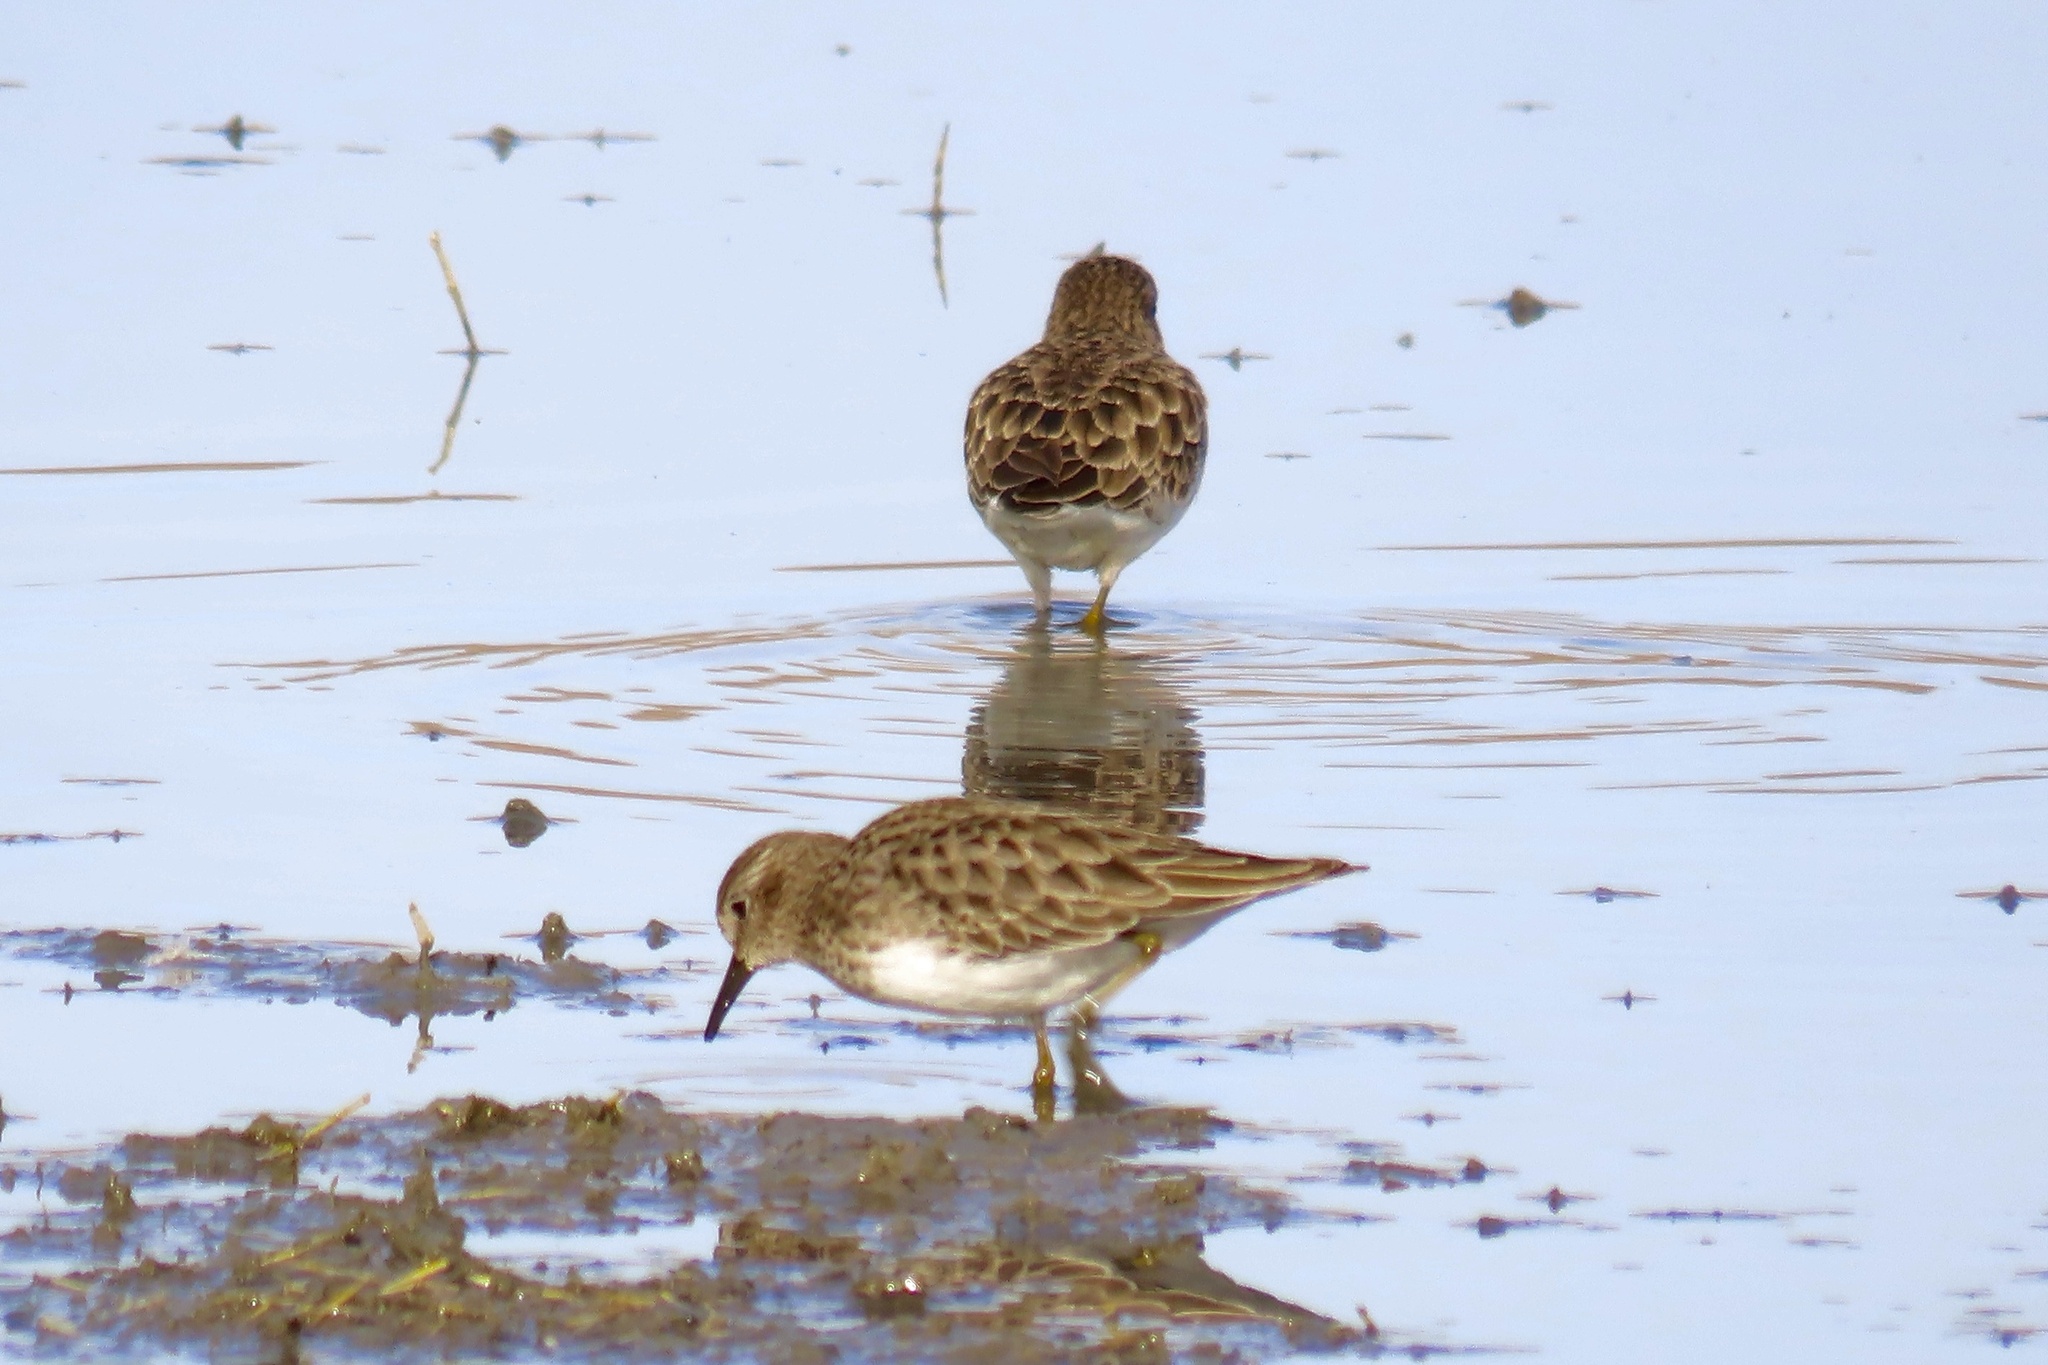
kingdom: Animalia
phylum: Chordata
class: Aves
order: Charadriiformes
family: Scolopacidae
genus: Calidris
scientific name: Calidris minutilla
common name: Least sandpiper
